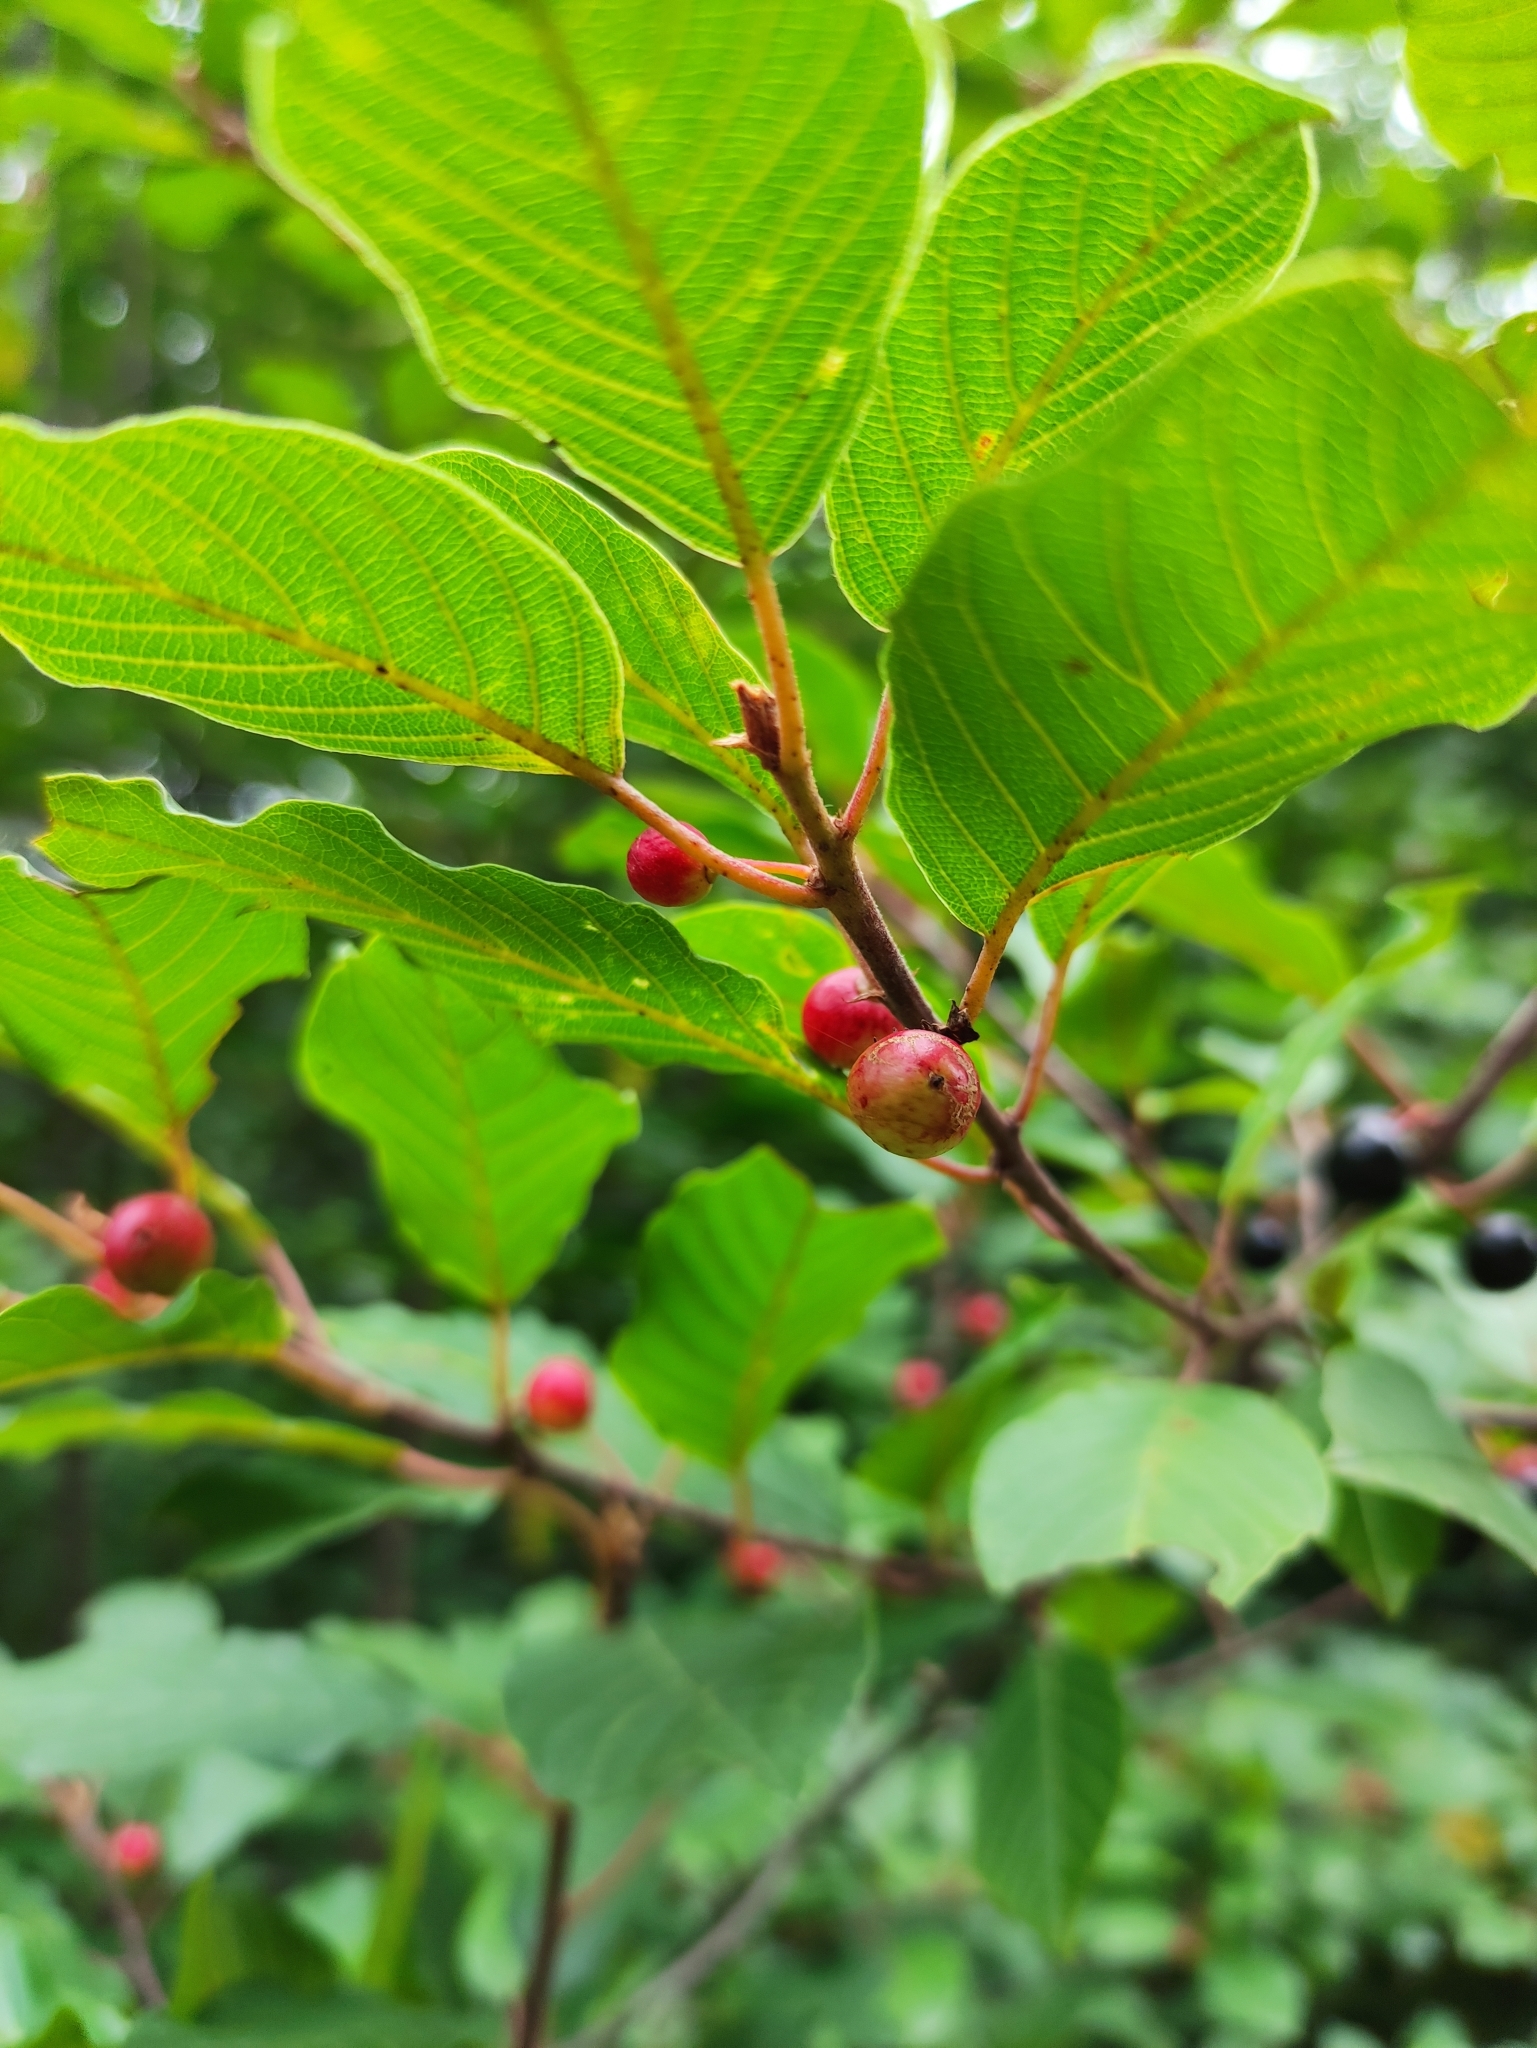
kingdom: Plantae
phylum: Tracheophyta
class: Magnoliopsida
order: Rosales
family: Rhamnaceae
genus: Frangula
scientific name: Frangula alnus
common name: Alder buckthorn
